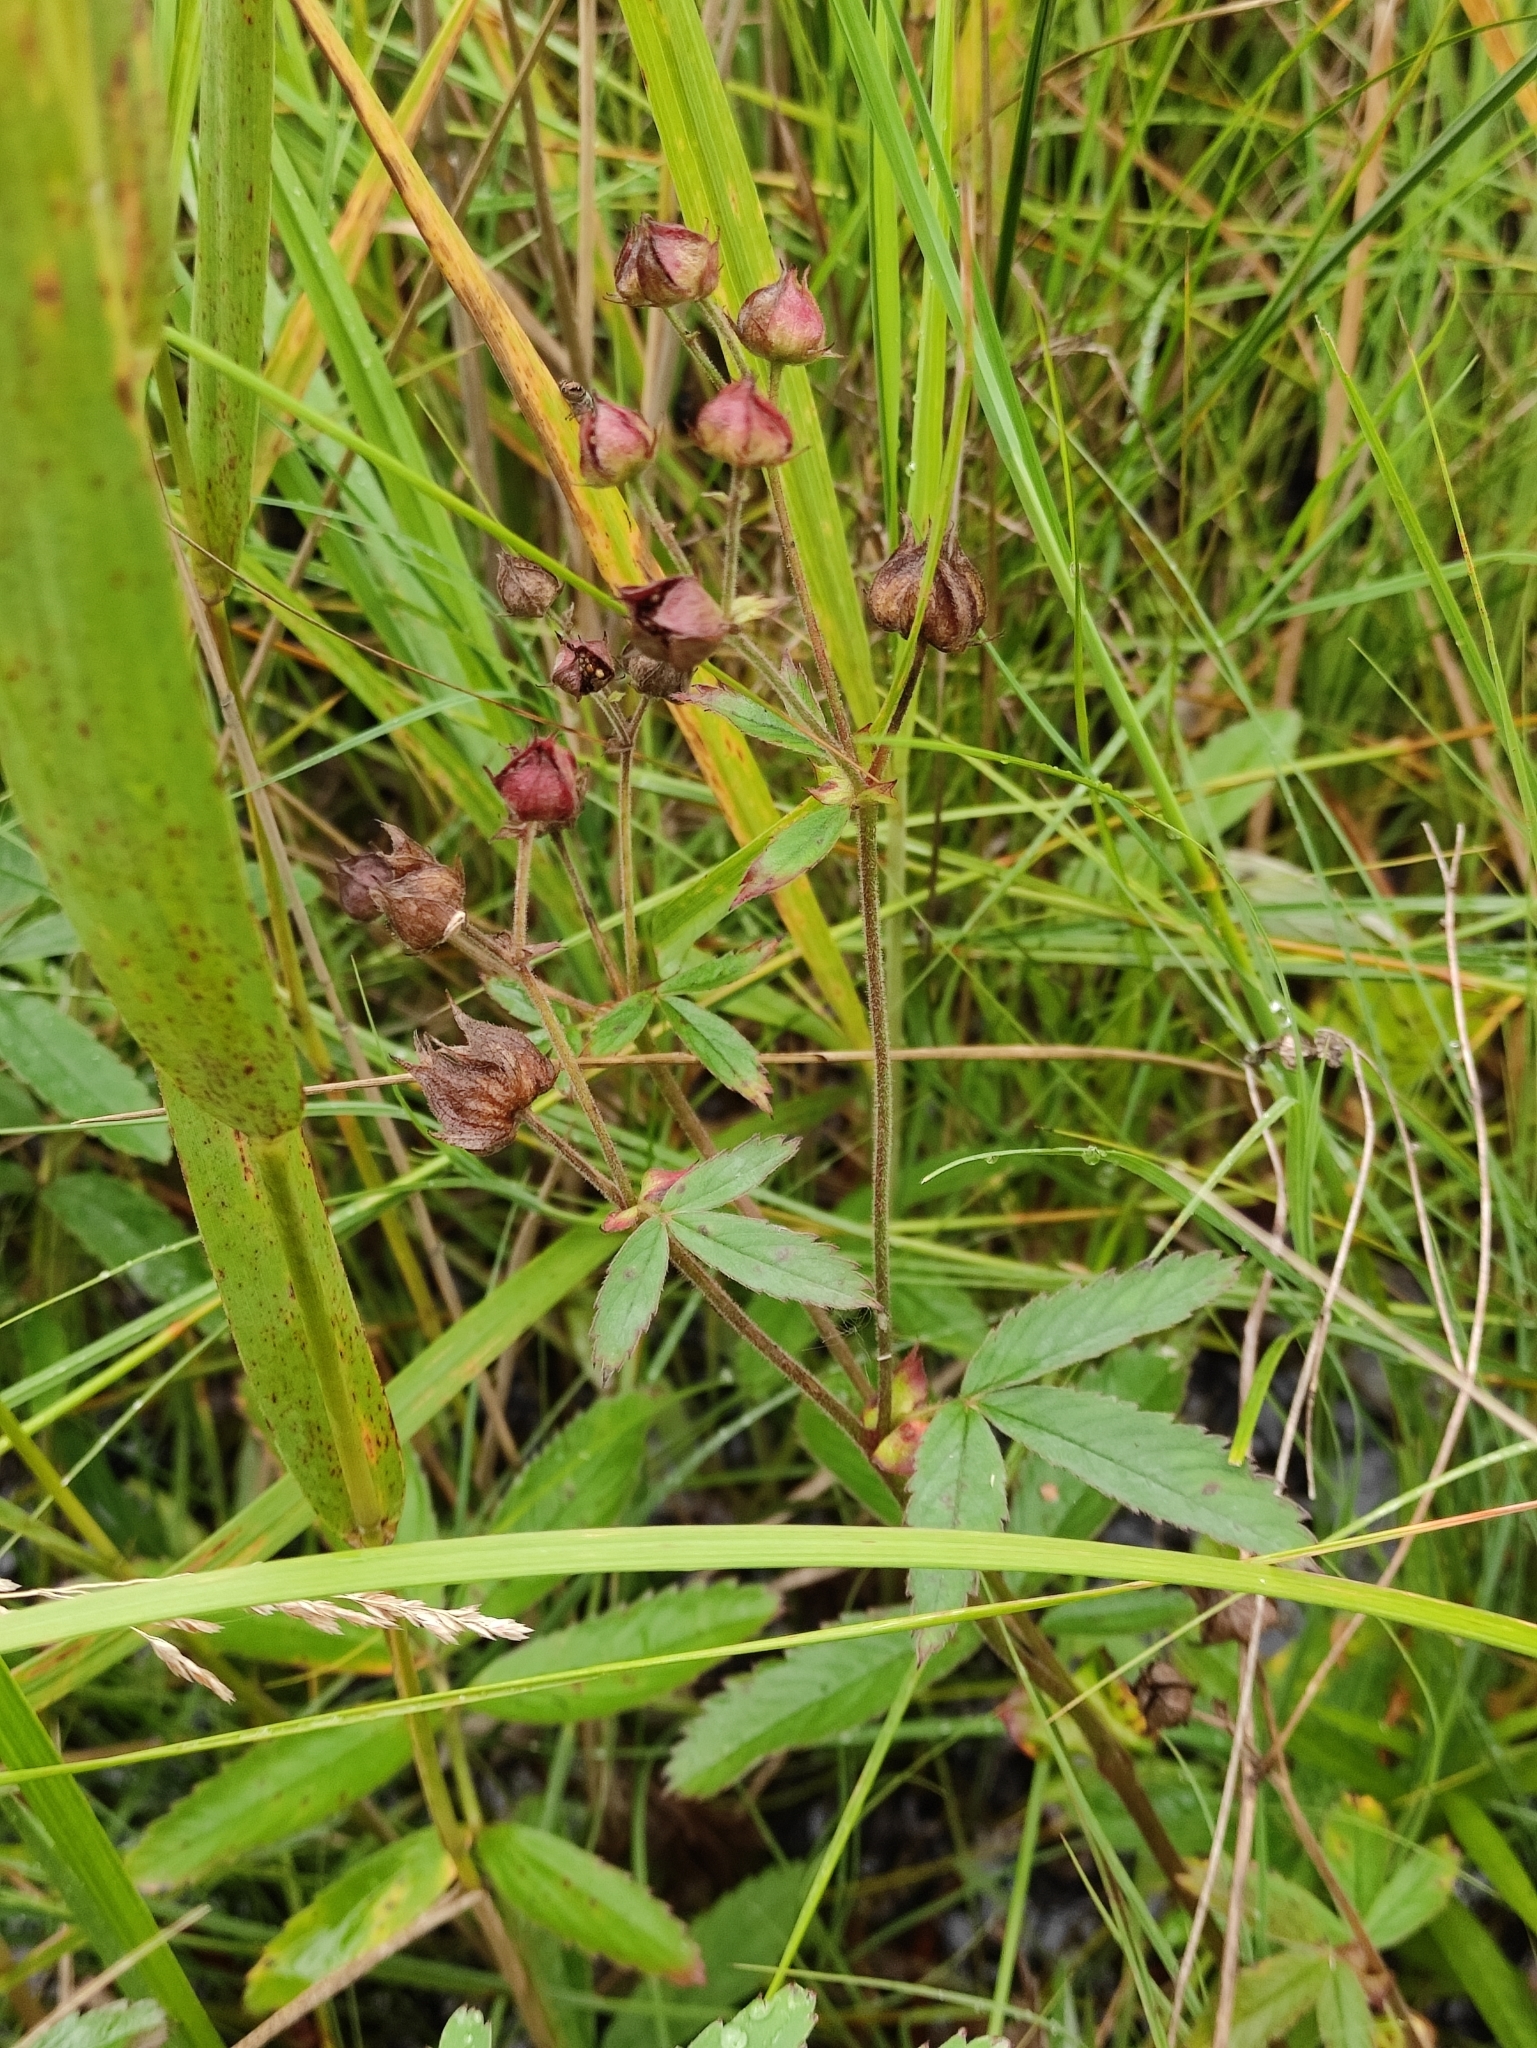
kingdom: Plantae
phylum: Tracheophyta
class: Magnoliopsida
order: Rosales
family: Rosaceae
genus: Comarum
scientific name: Comarum palustre
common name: Marsh cinquefoil
